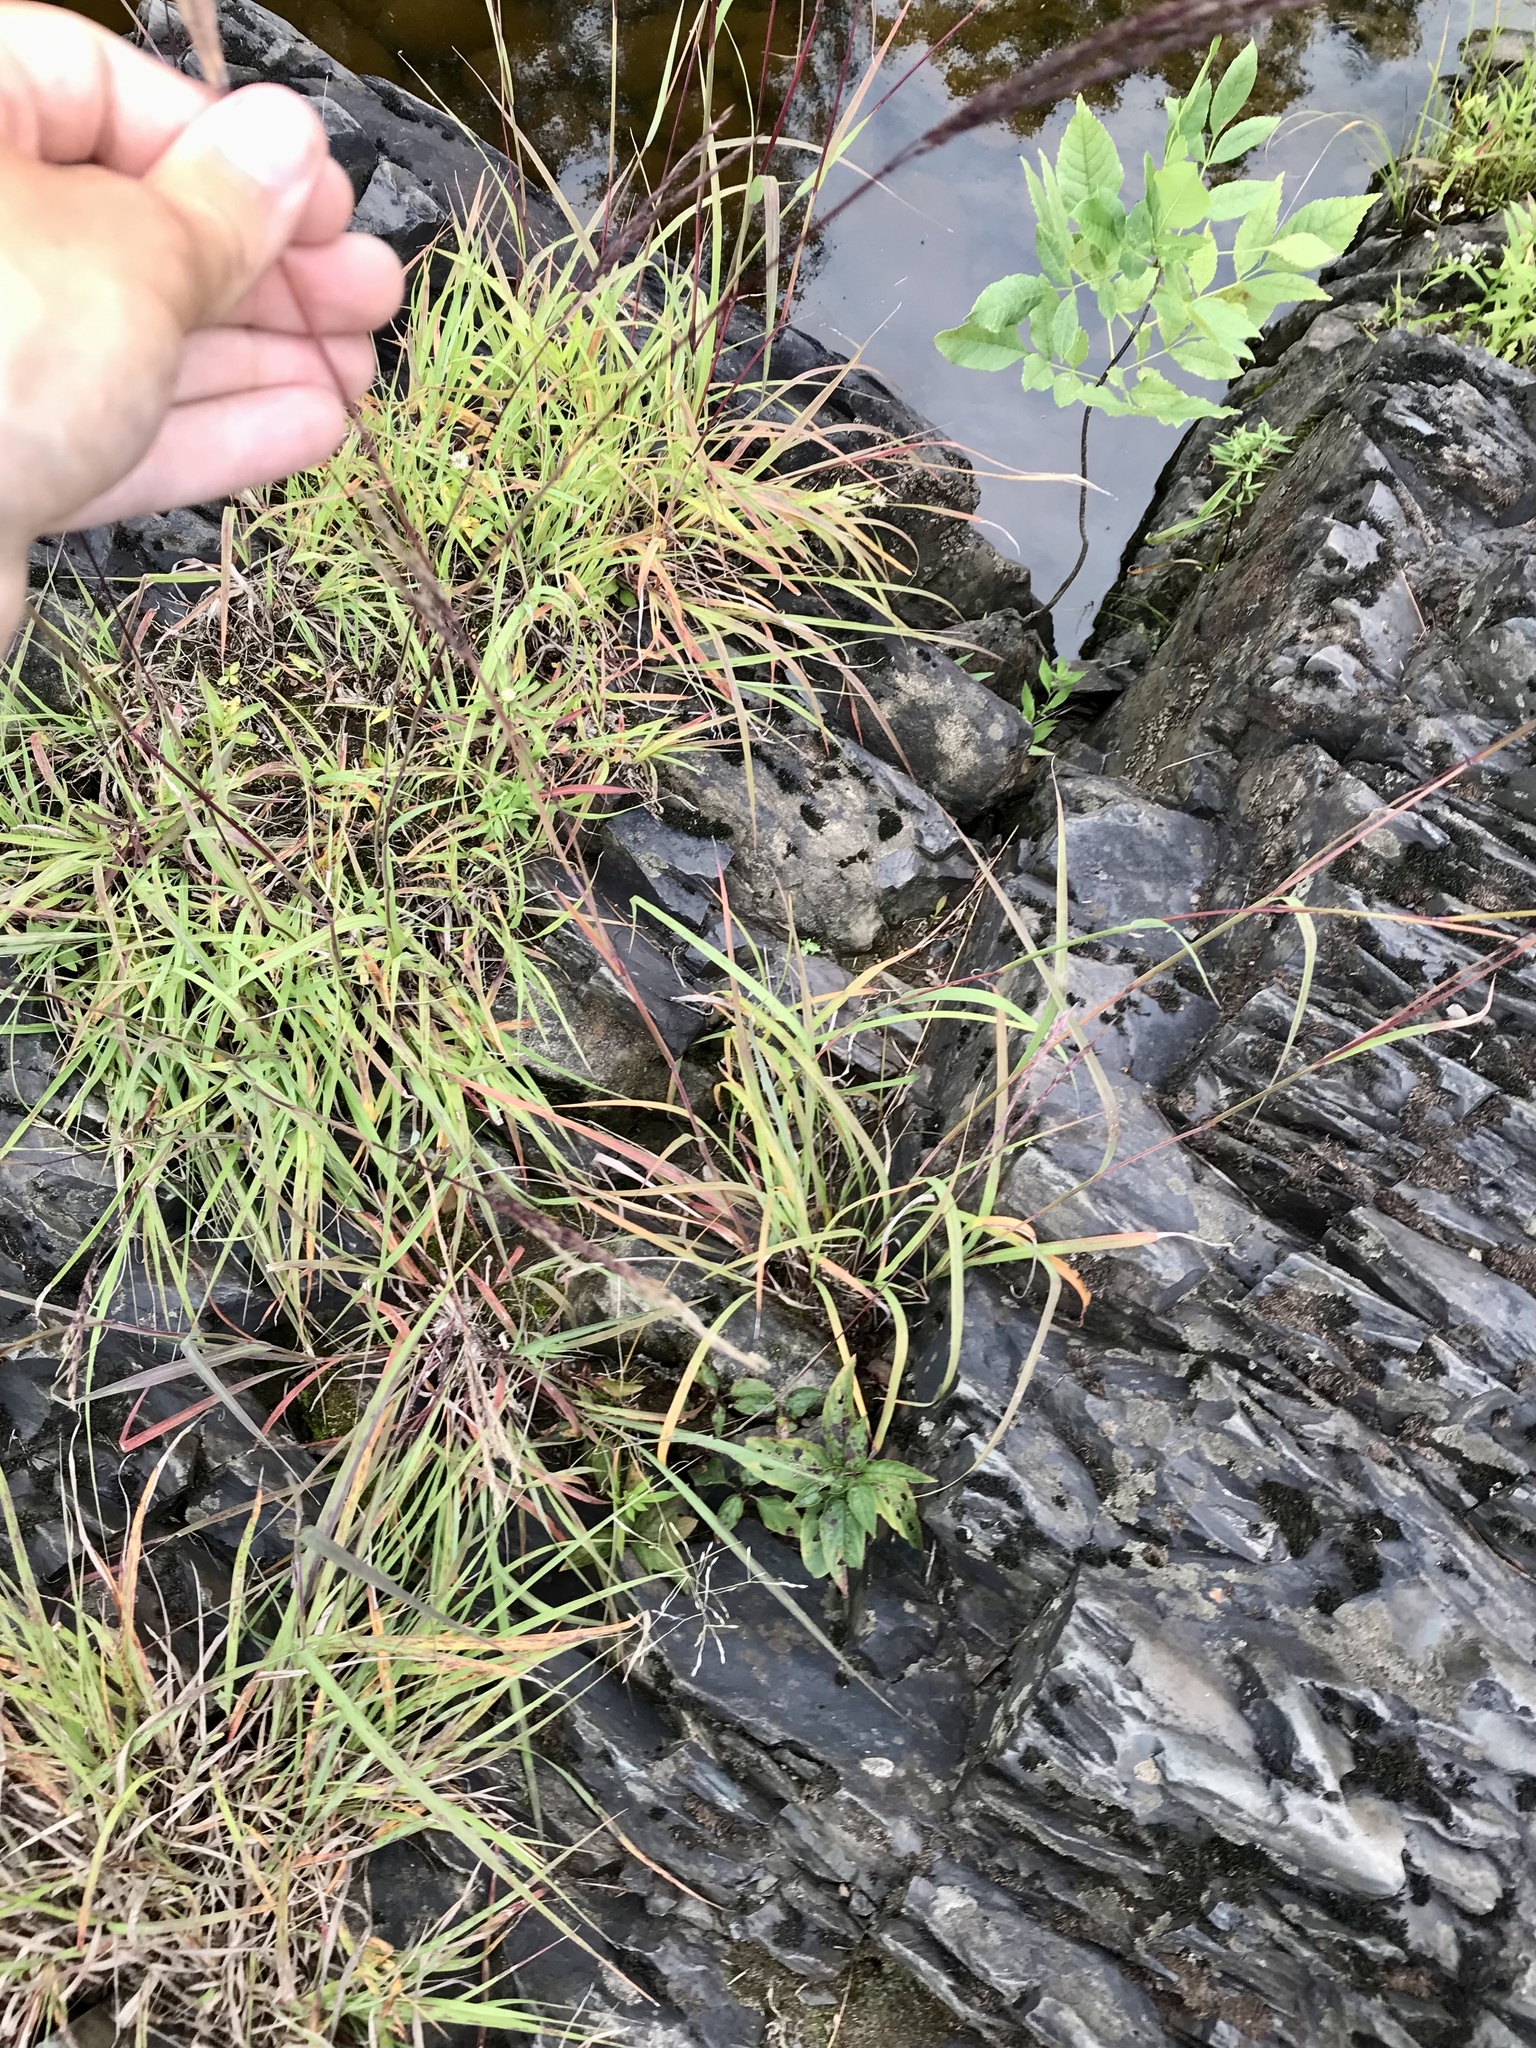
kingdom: Plantae
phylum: Tracheophyta
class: Liliopsida
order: Poales
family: Poaceae
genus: Andropogon
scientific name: Andropogon gerardi
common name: Big bluestem
